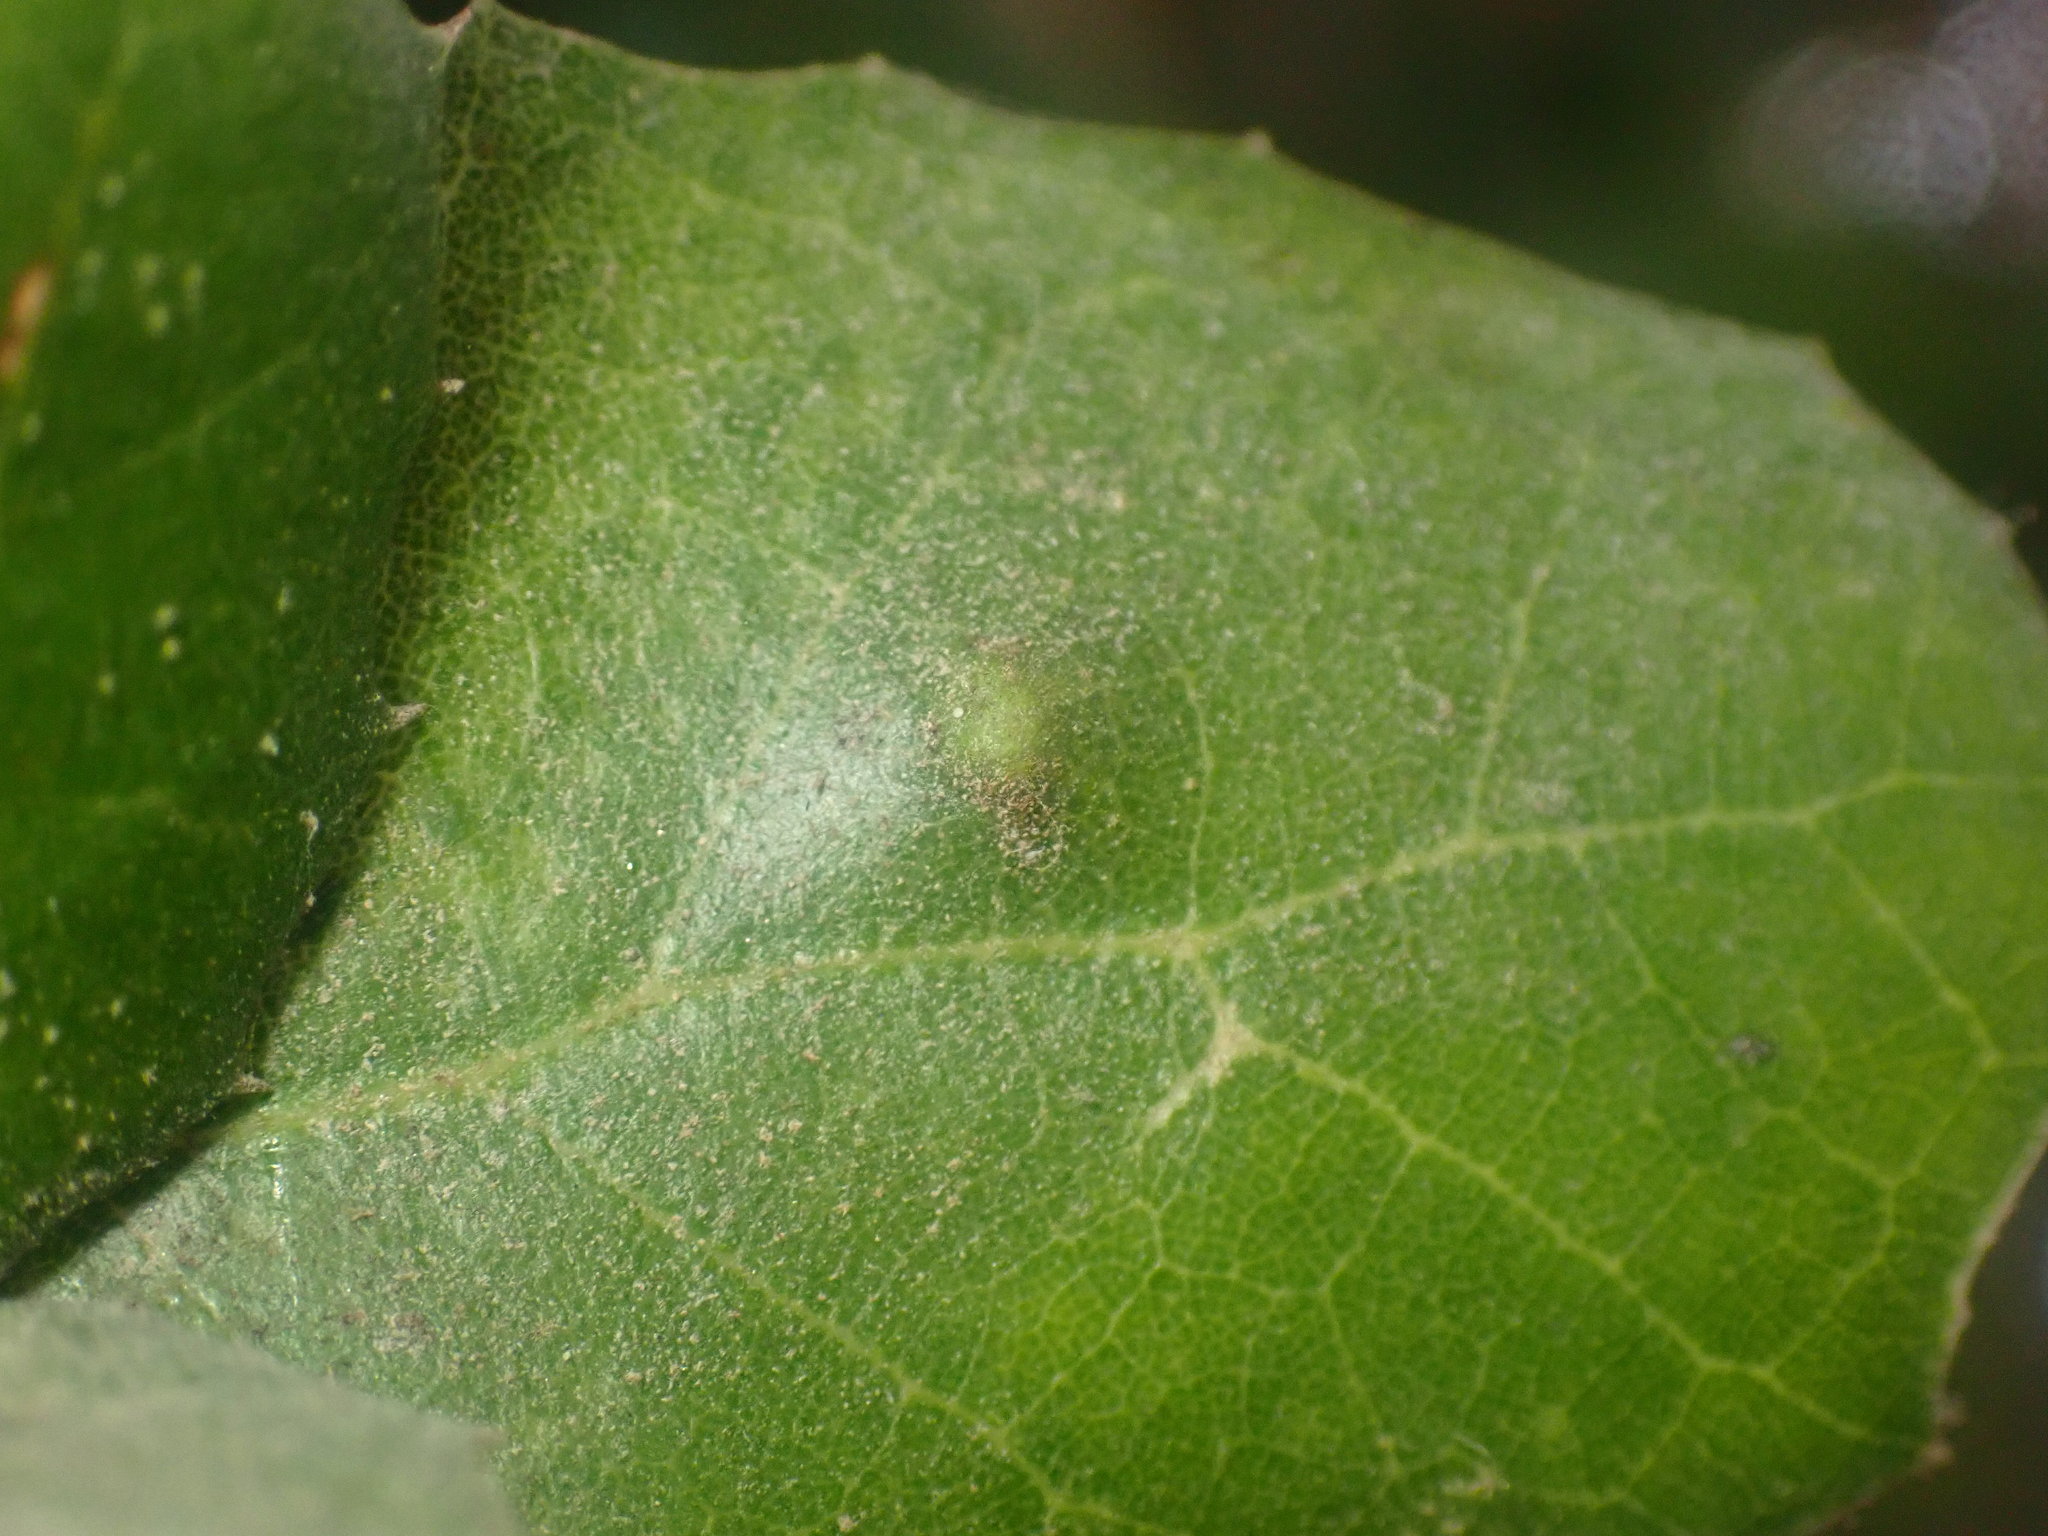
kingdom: Animalia
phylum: Arthropoda
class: Arachnida
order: Trombidiformes
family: Eriophyidae
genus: Aceria
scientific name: Aceria
